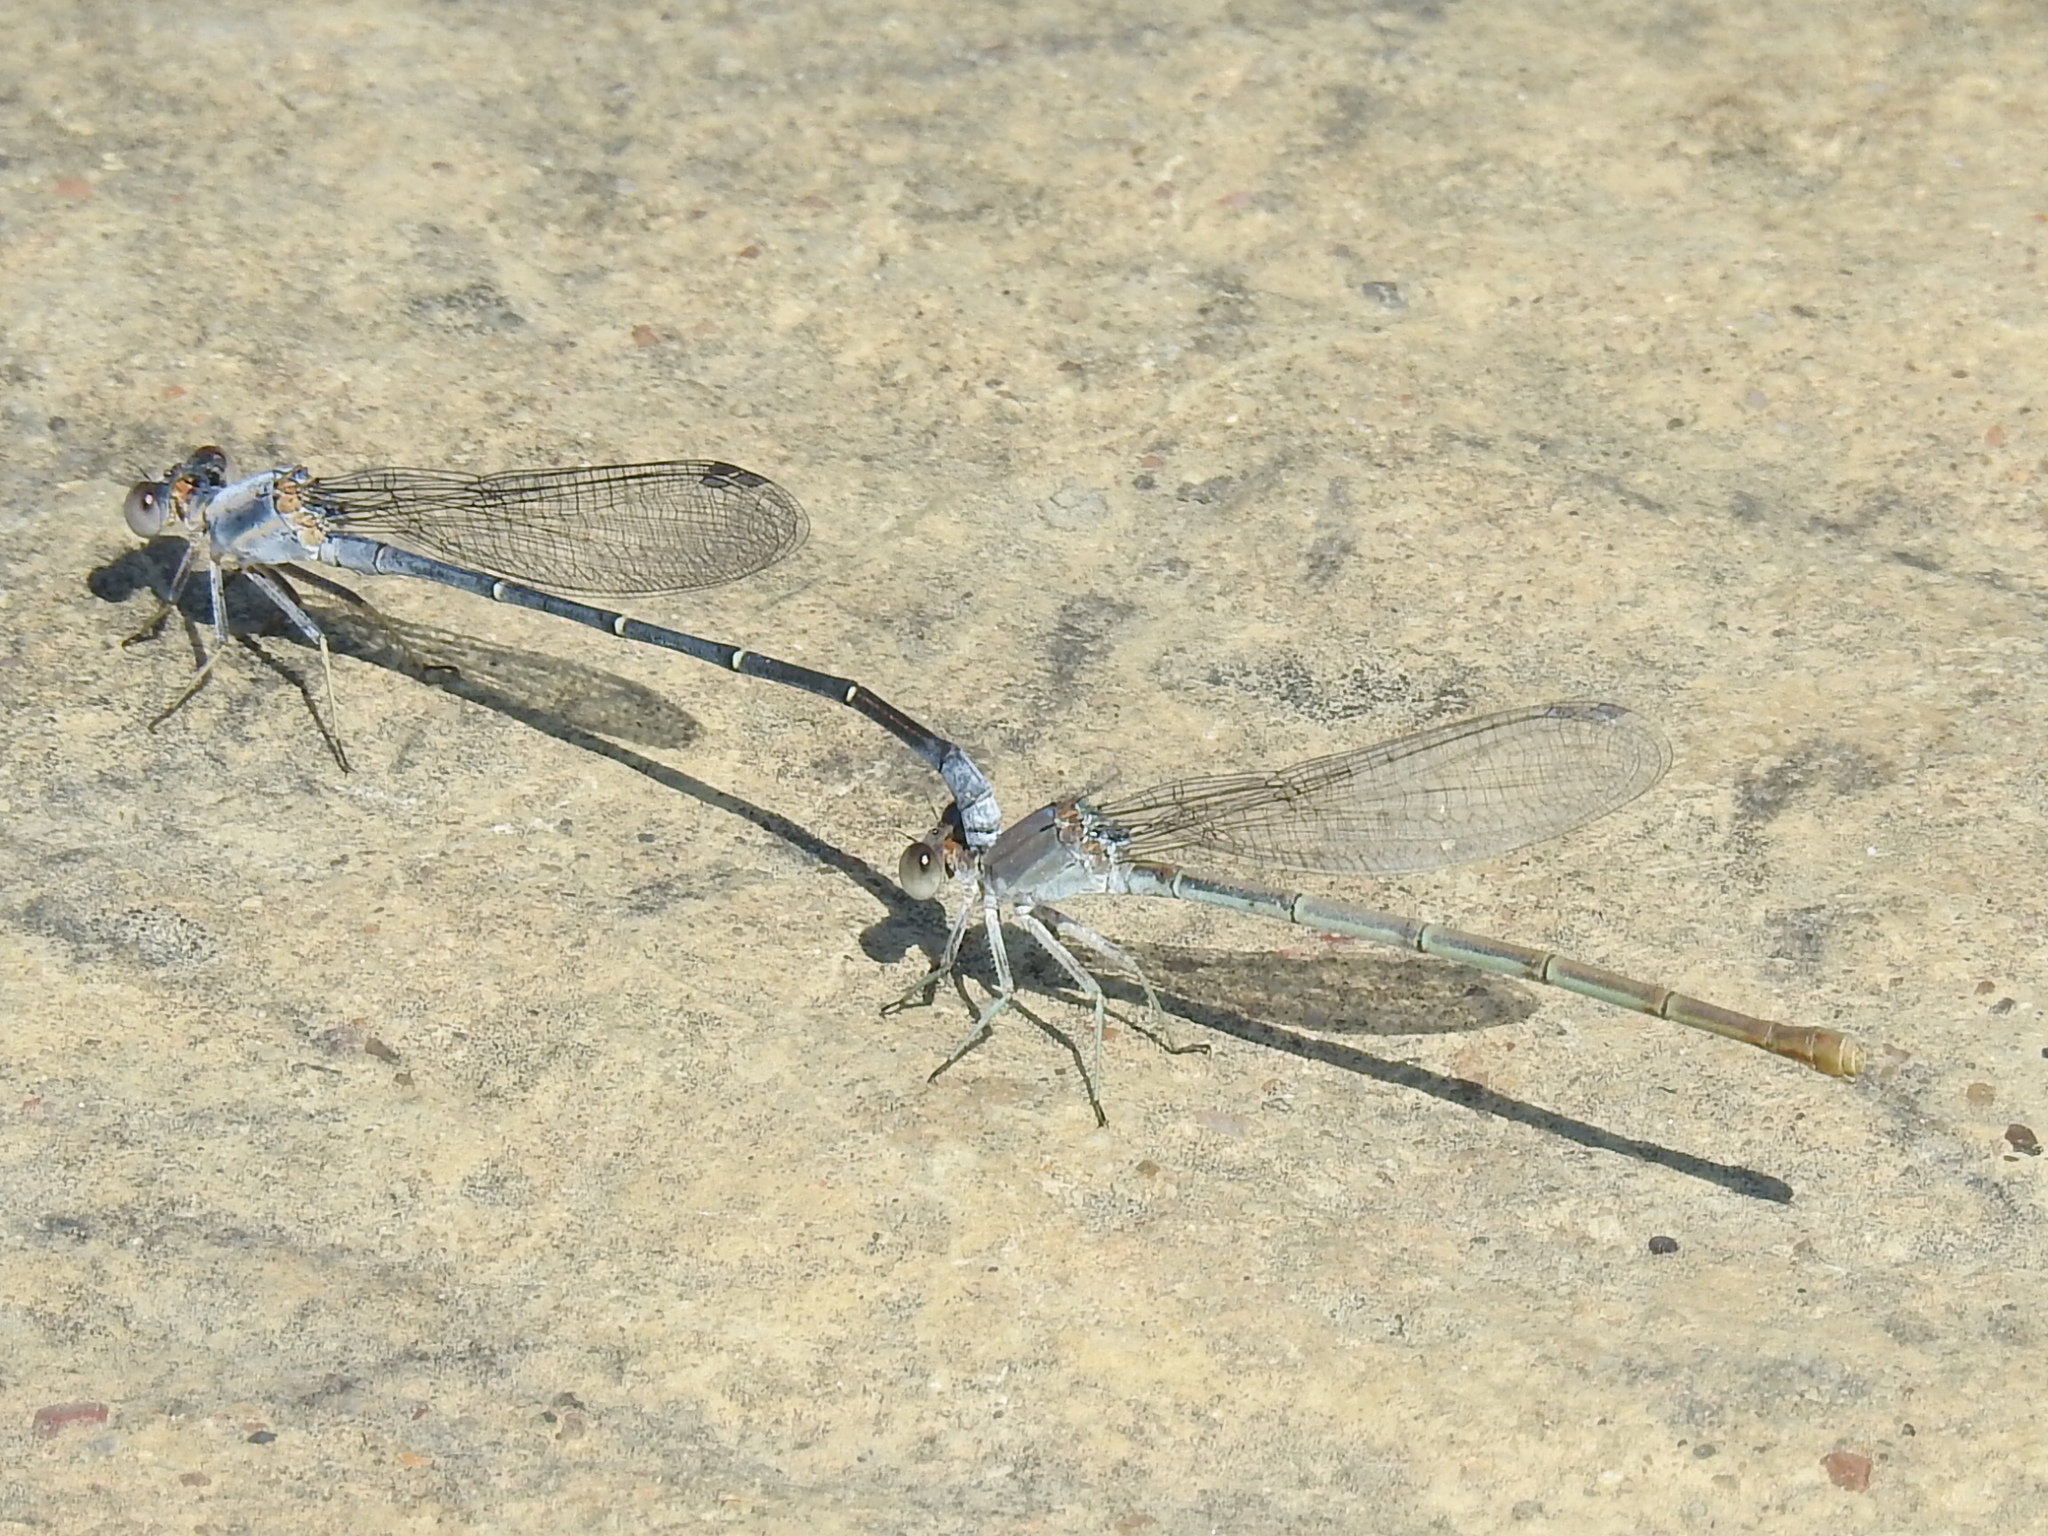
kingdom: Animalia
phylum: Arthropoda
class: Insecta
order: Odonata
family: Coenagrionidae
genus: Argia
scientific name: Argia moesta
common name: Powdered dancer
